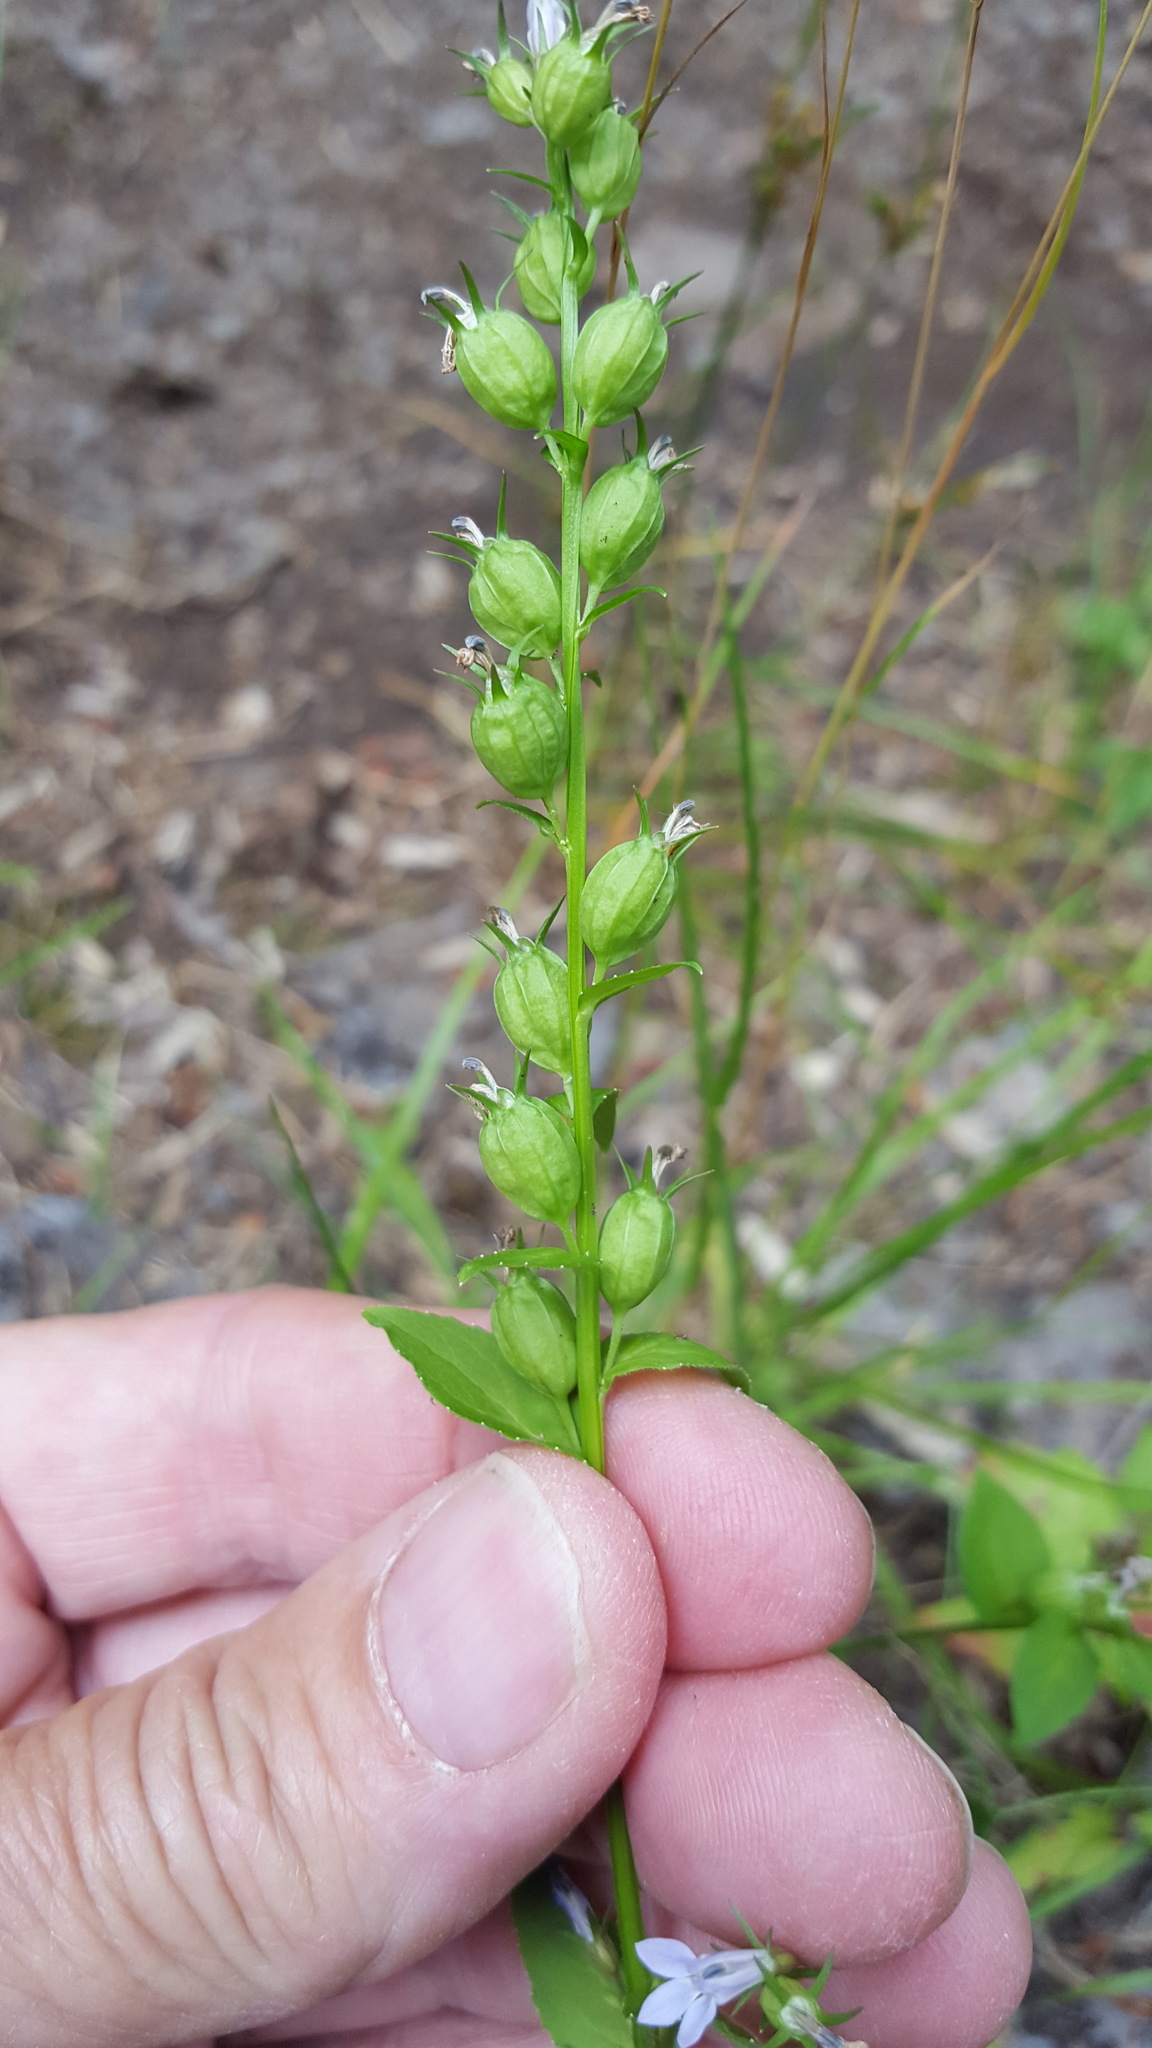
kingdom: Plantae
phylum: Tracheophyta
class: Magnoliopsida
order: Asterales
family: Campanulaceae
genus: Lobelia
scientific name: Lobelia inflata
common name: Indian tobacco
